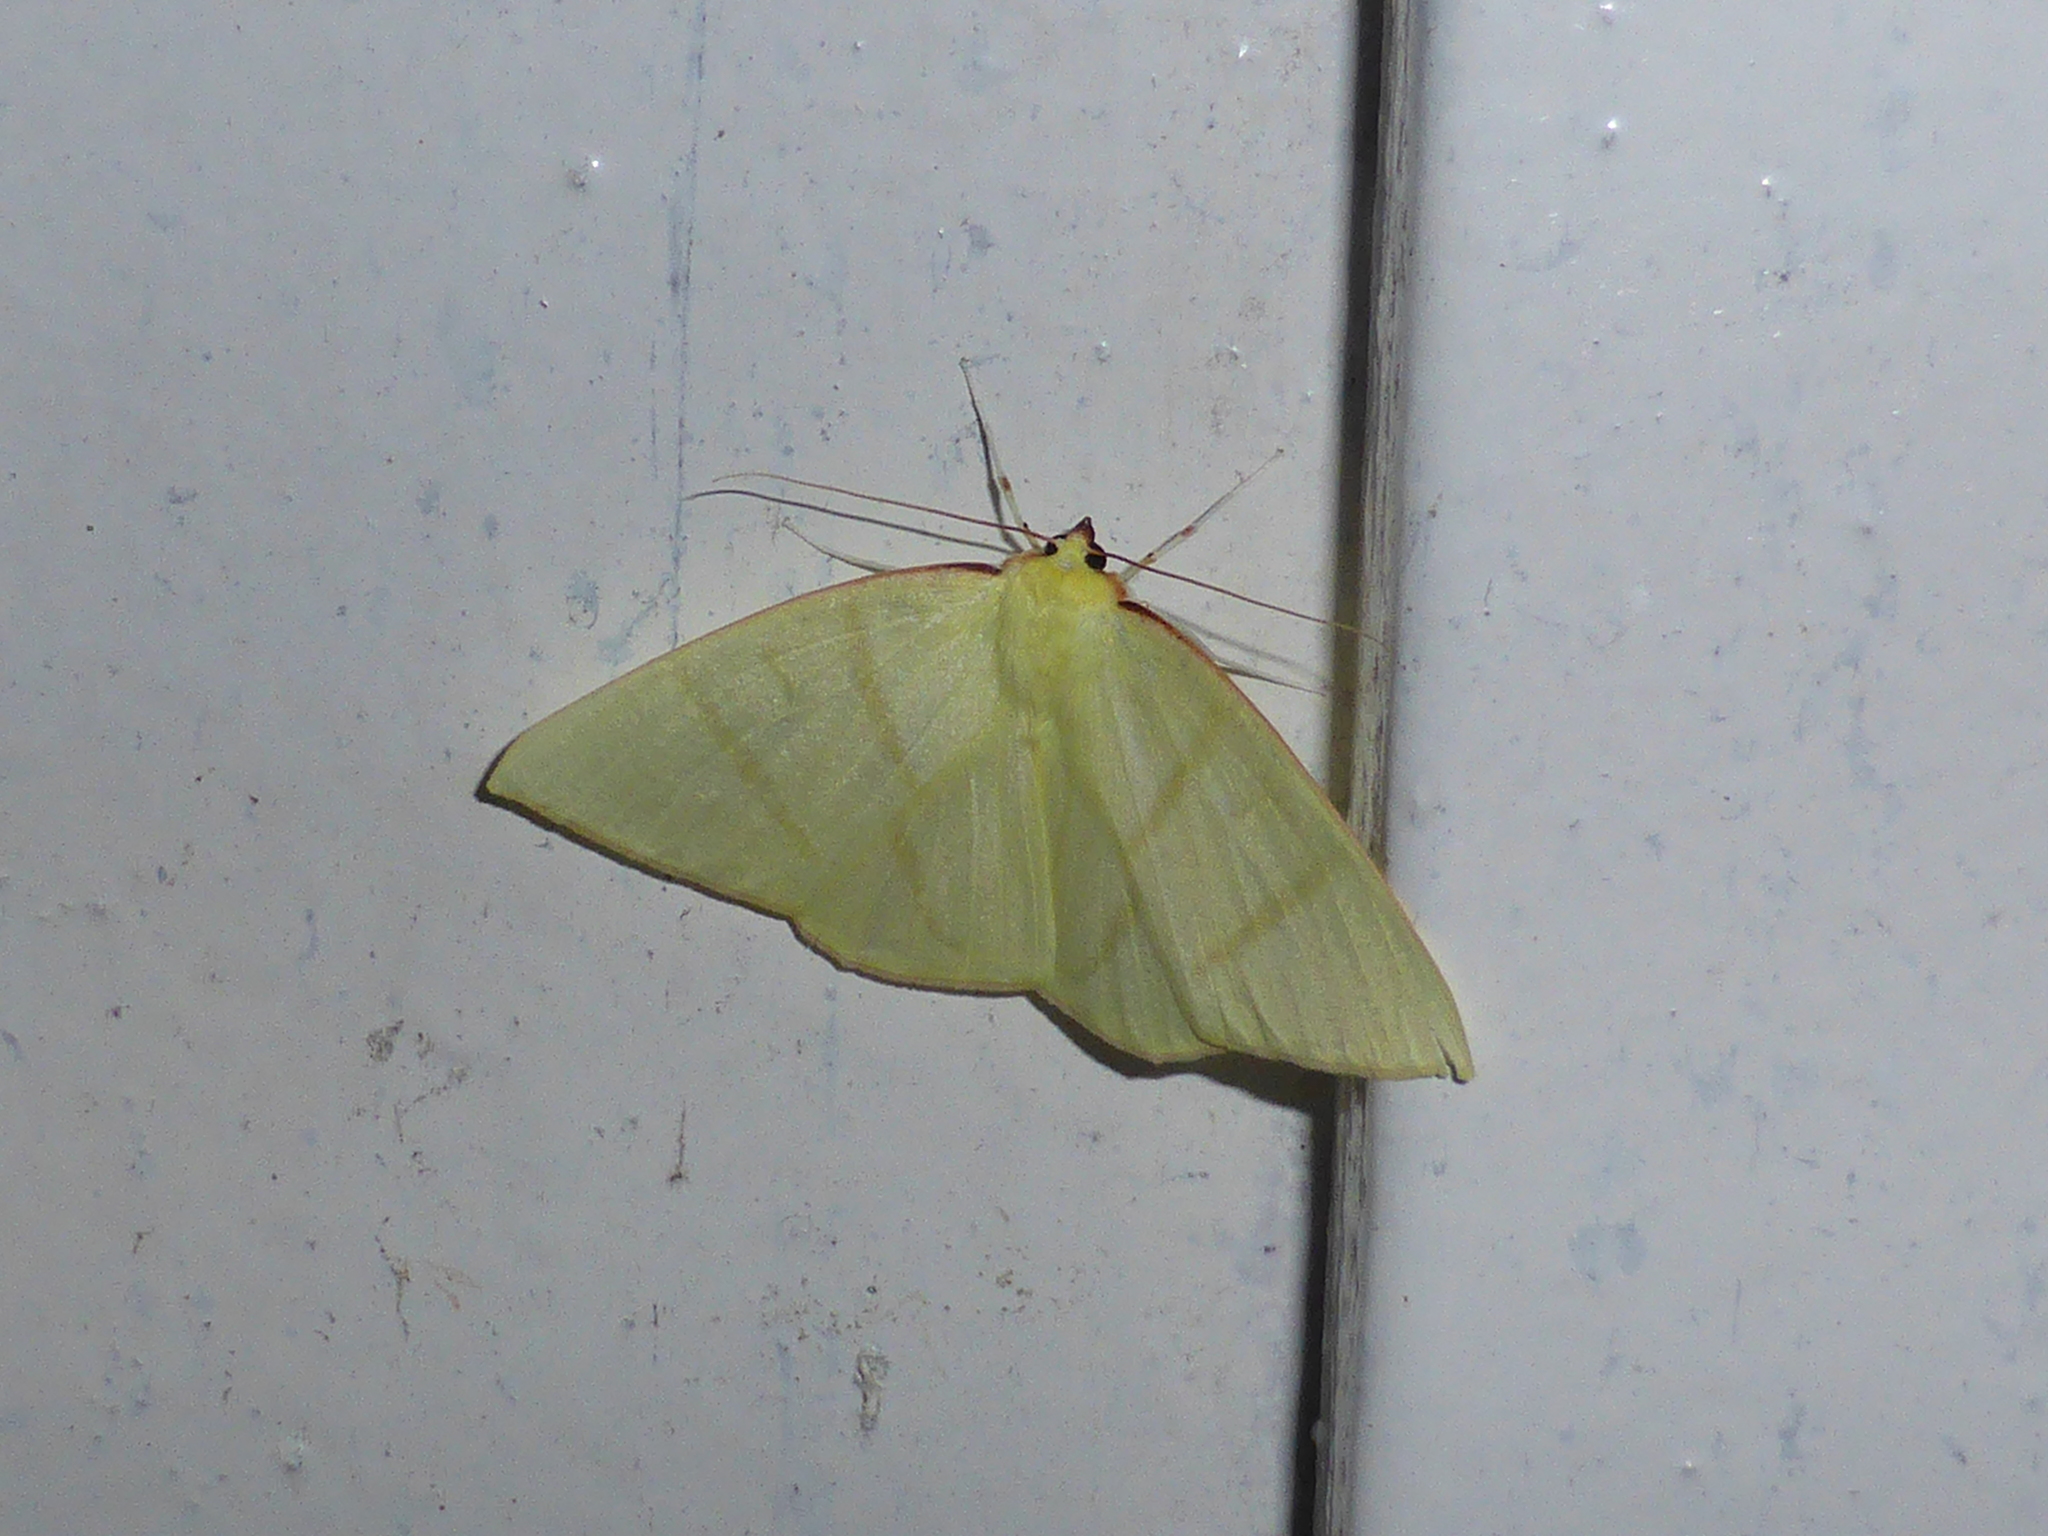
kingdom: Animalia
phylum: Arthropoda
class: Insecta
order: Lepidoptera
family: Geometridae
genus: Ourapteryx
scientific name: Ourapteryx incaudata
